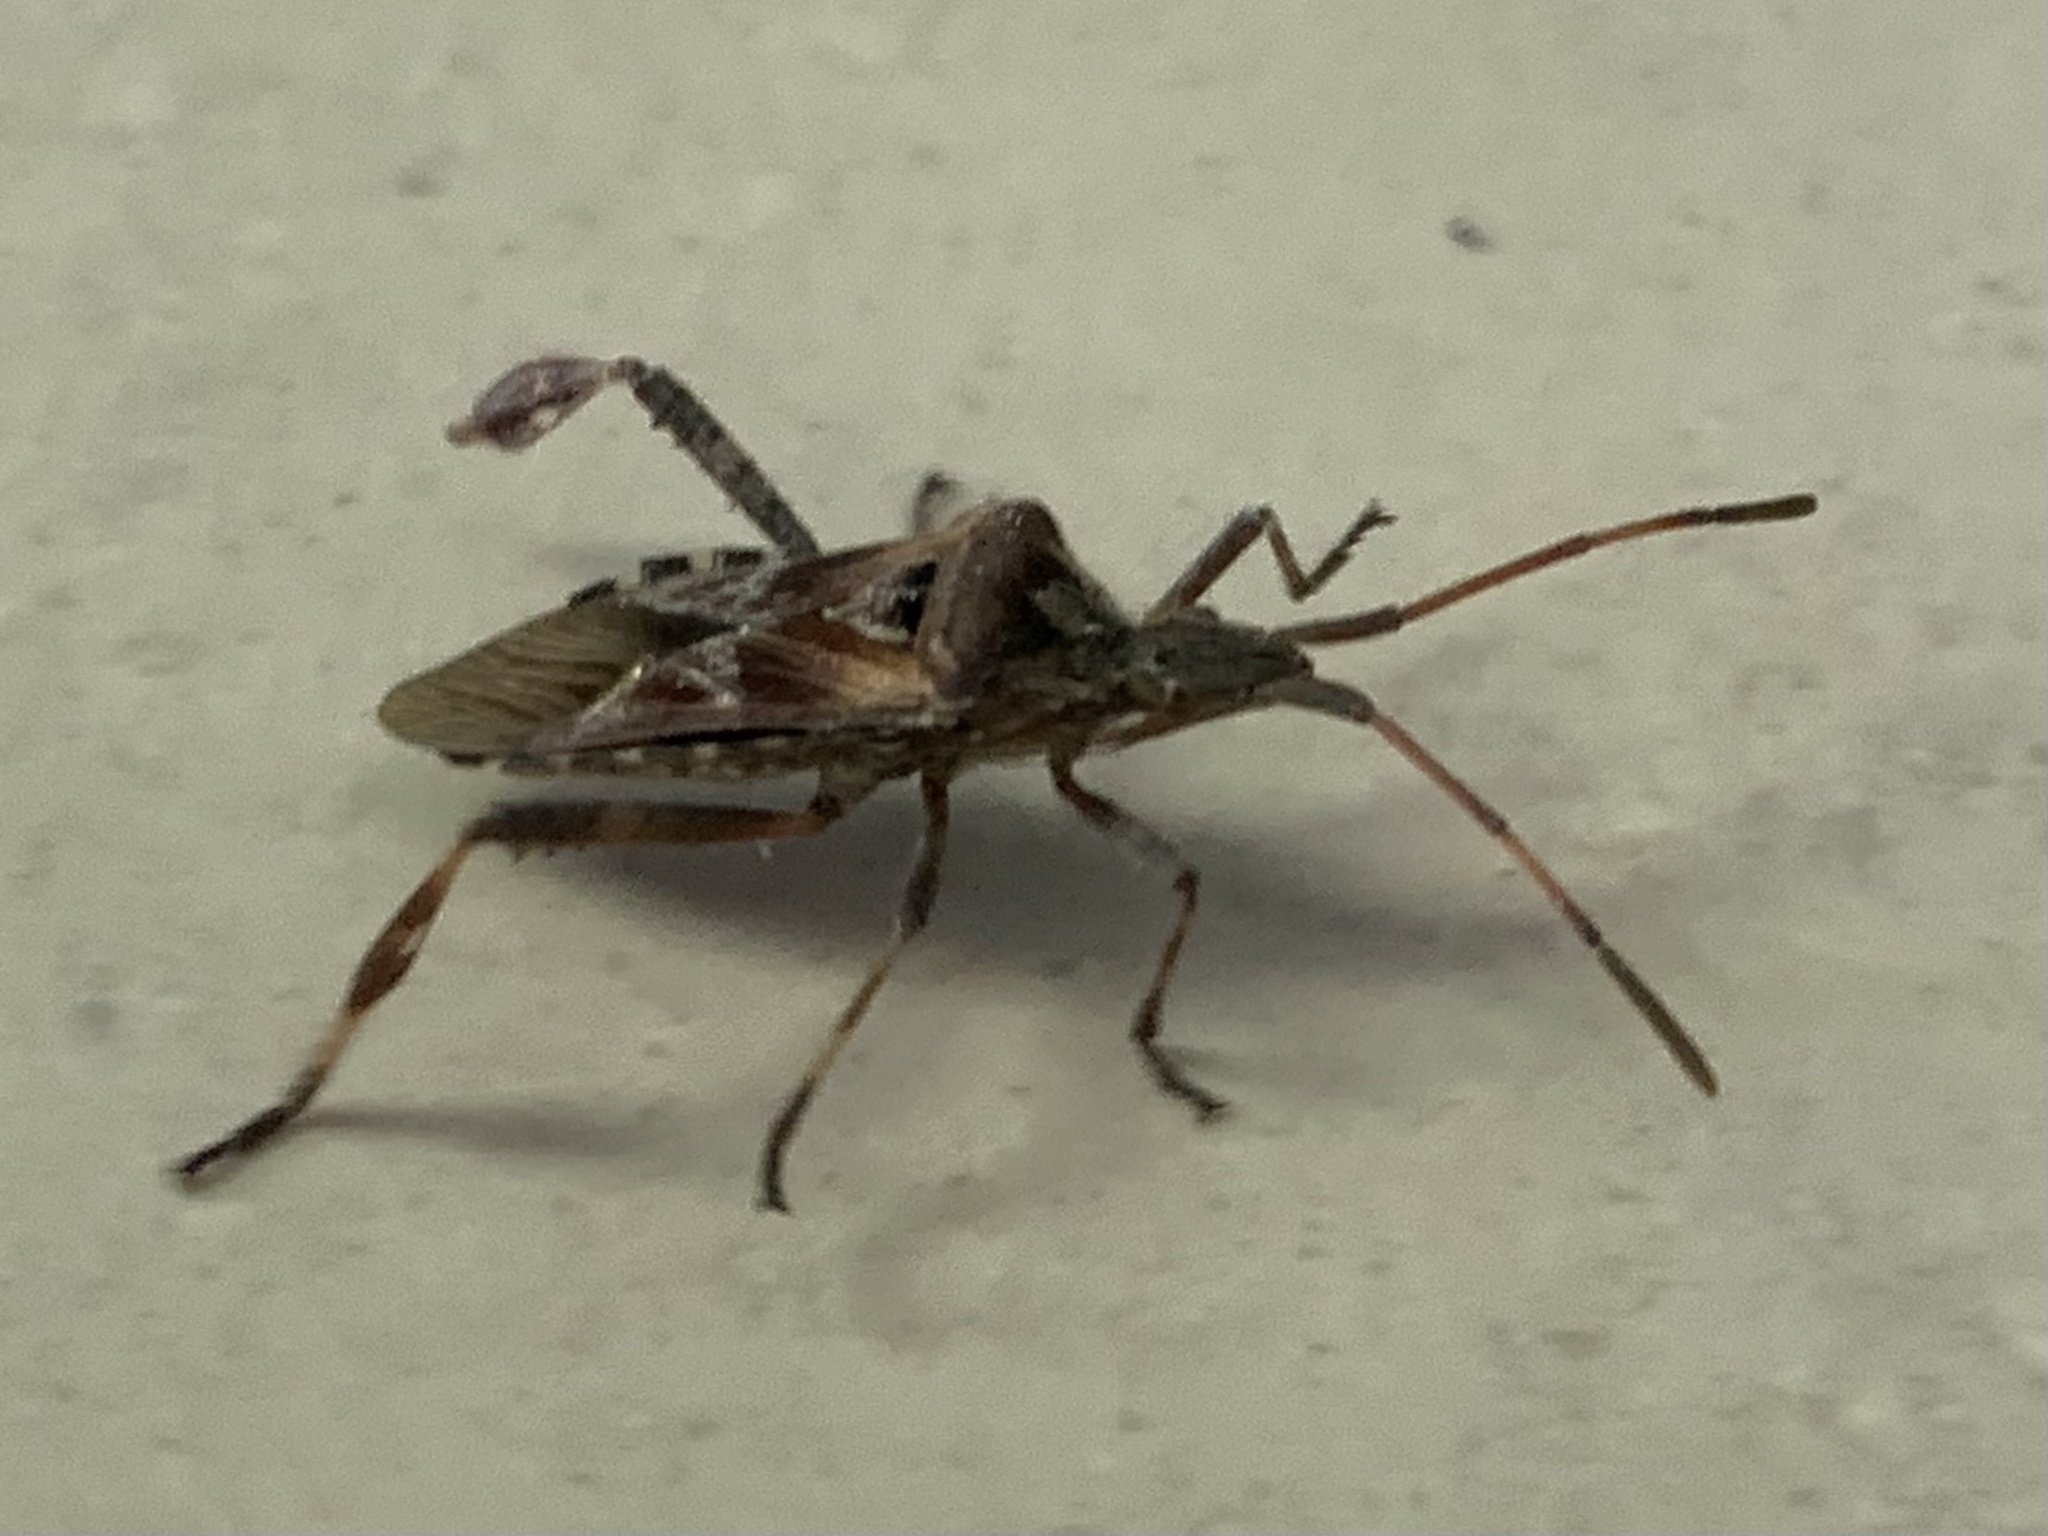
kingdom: Animalia
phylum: Arthropoda
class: Insecta
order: Hemiptera
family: Coreidae
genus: Leptoglossus
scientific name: Leptoglossus occidentalis
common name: Western conifer-seed bug
